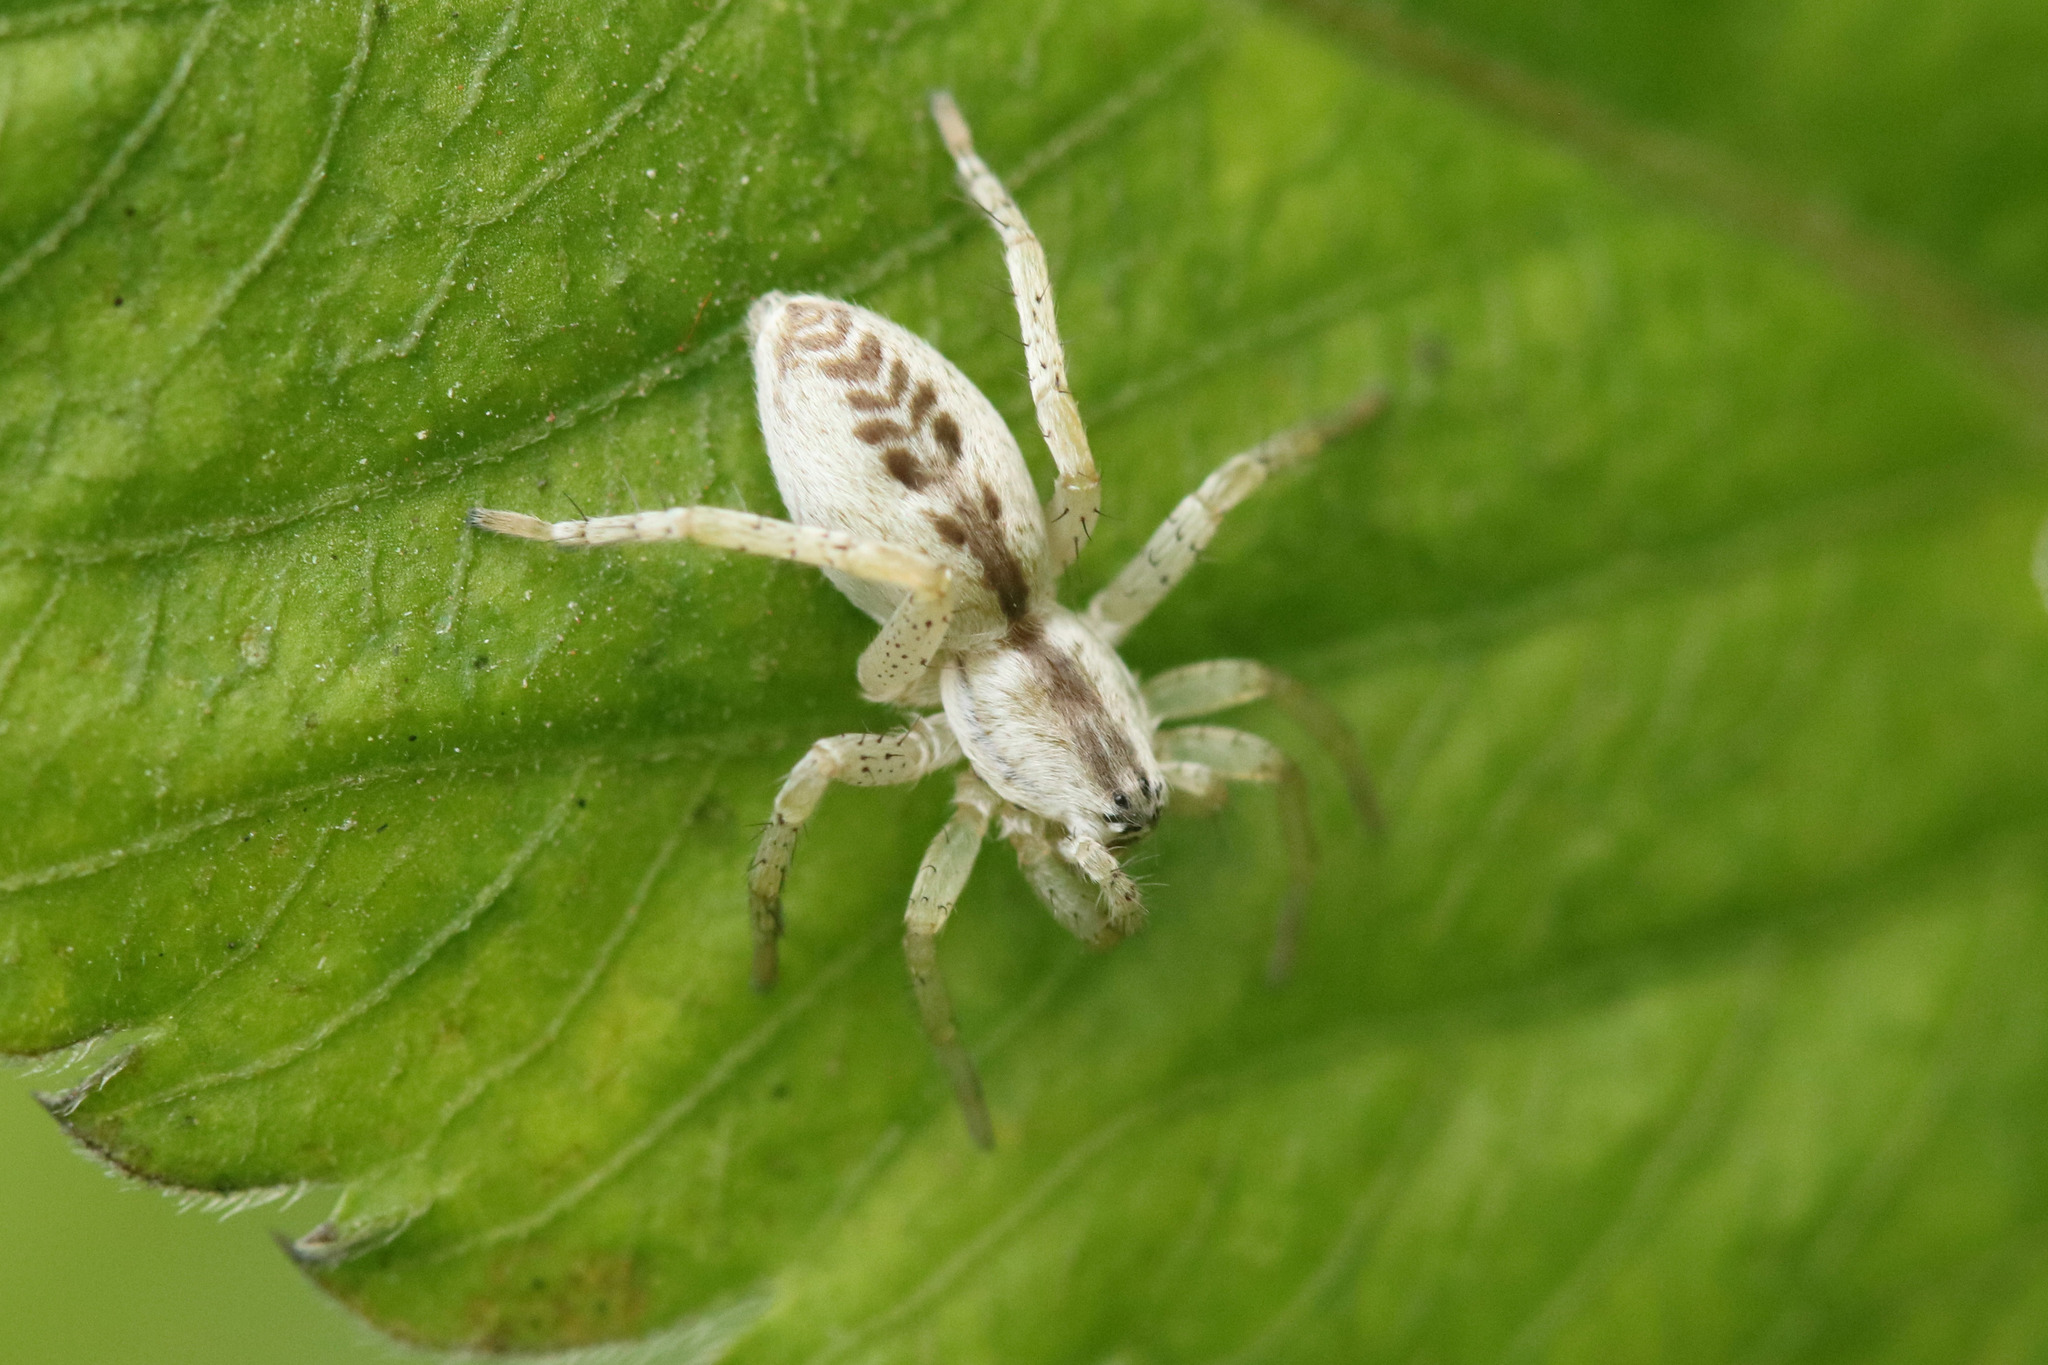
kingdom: Animalia
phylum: Arthropoda
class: Arachnida
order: Araneae
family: Anyphaenidae
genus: Arachosia
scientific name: Arachosia praesignis
